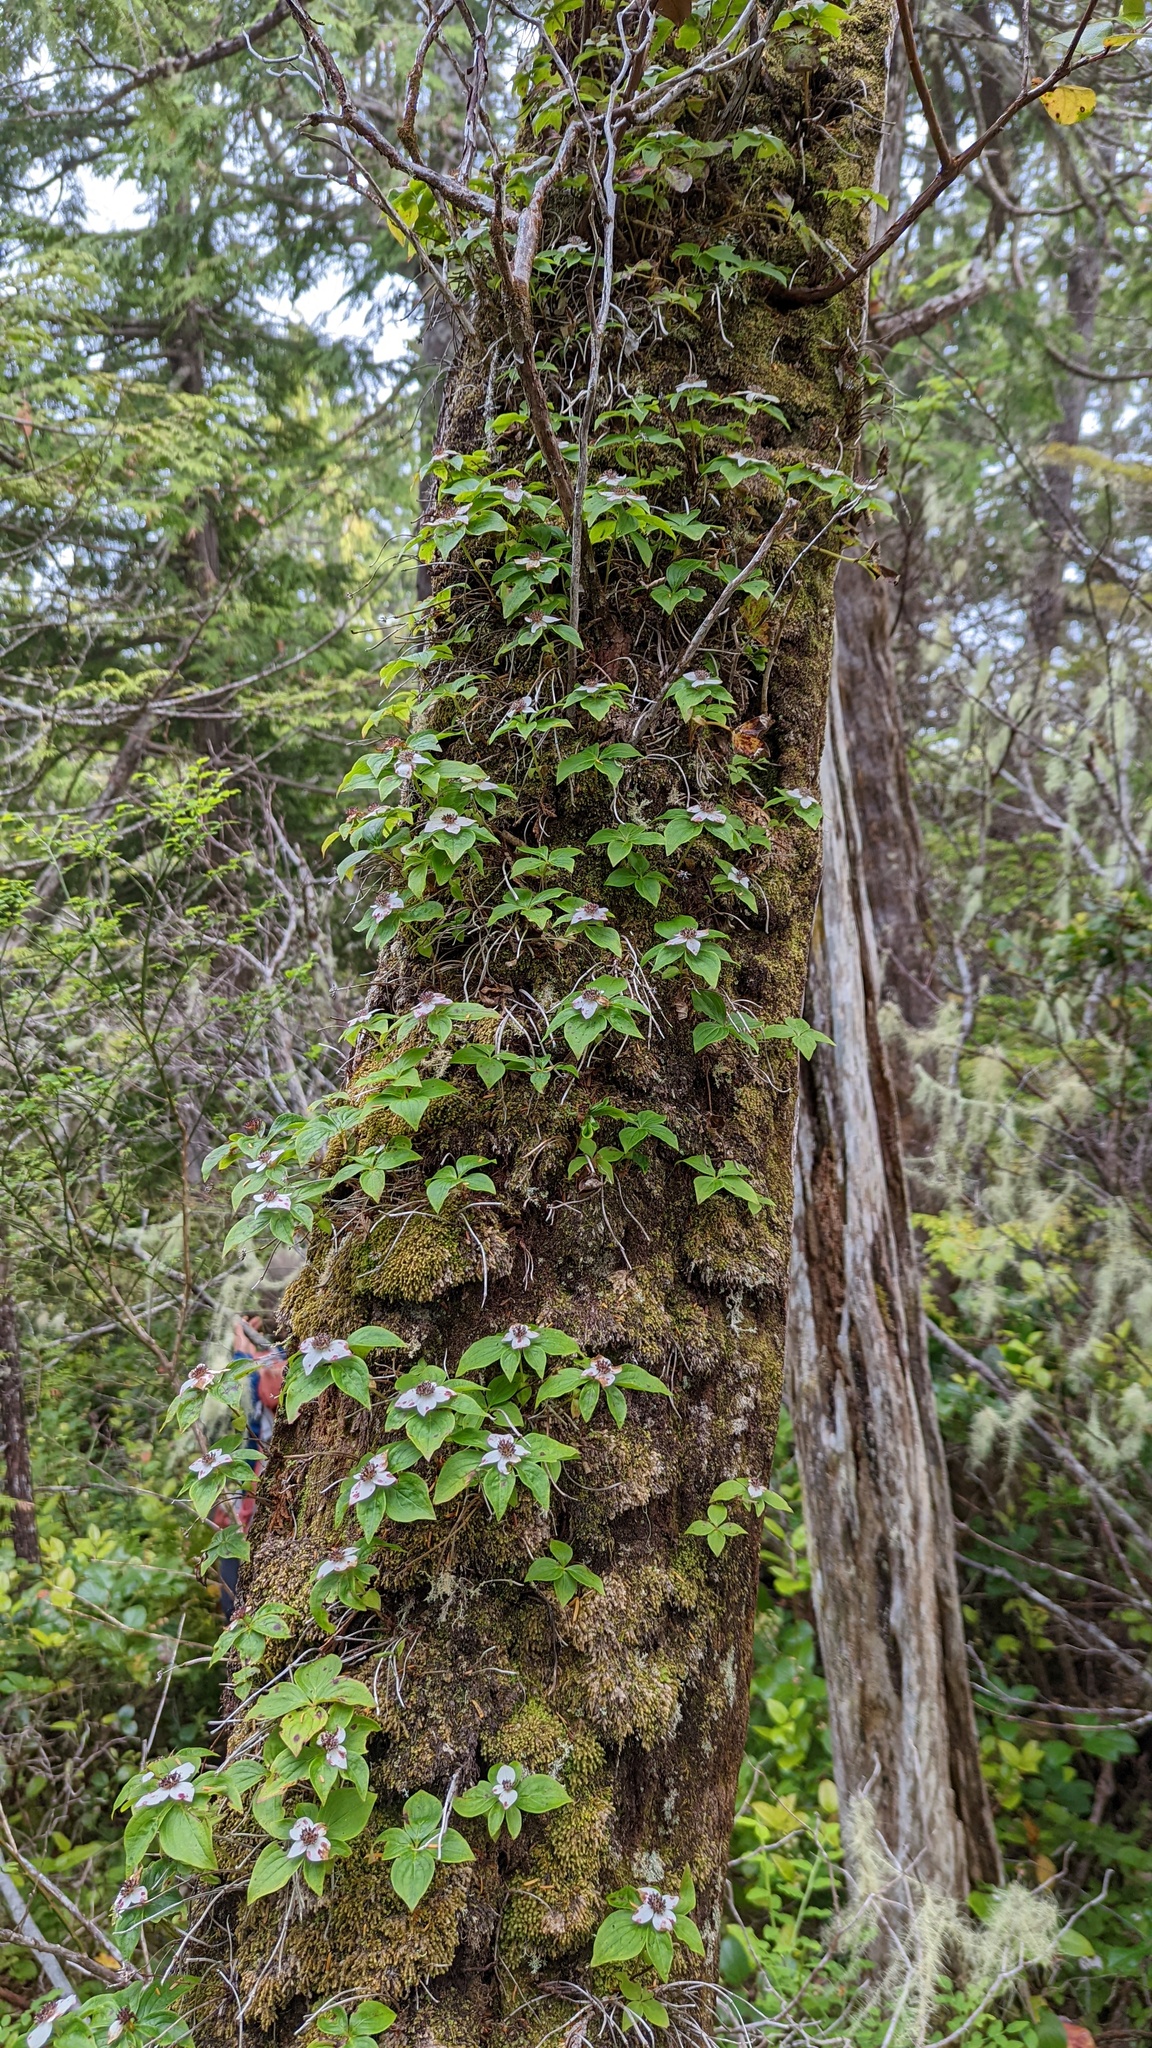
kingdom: Plantae
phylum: Tracheophyta
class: Magnoliopsida
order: Cornales
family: Cornaceae
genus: Cornus
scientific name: Cornus unalaschkensis
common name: Alaska bunchberry
